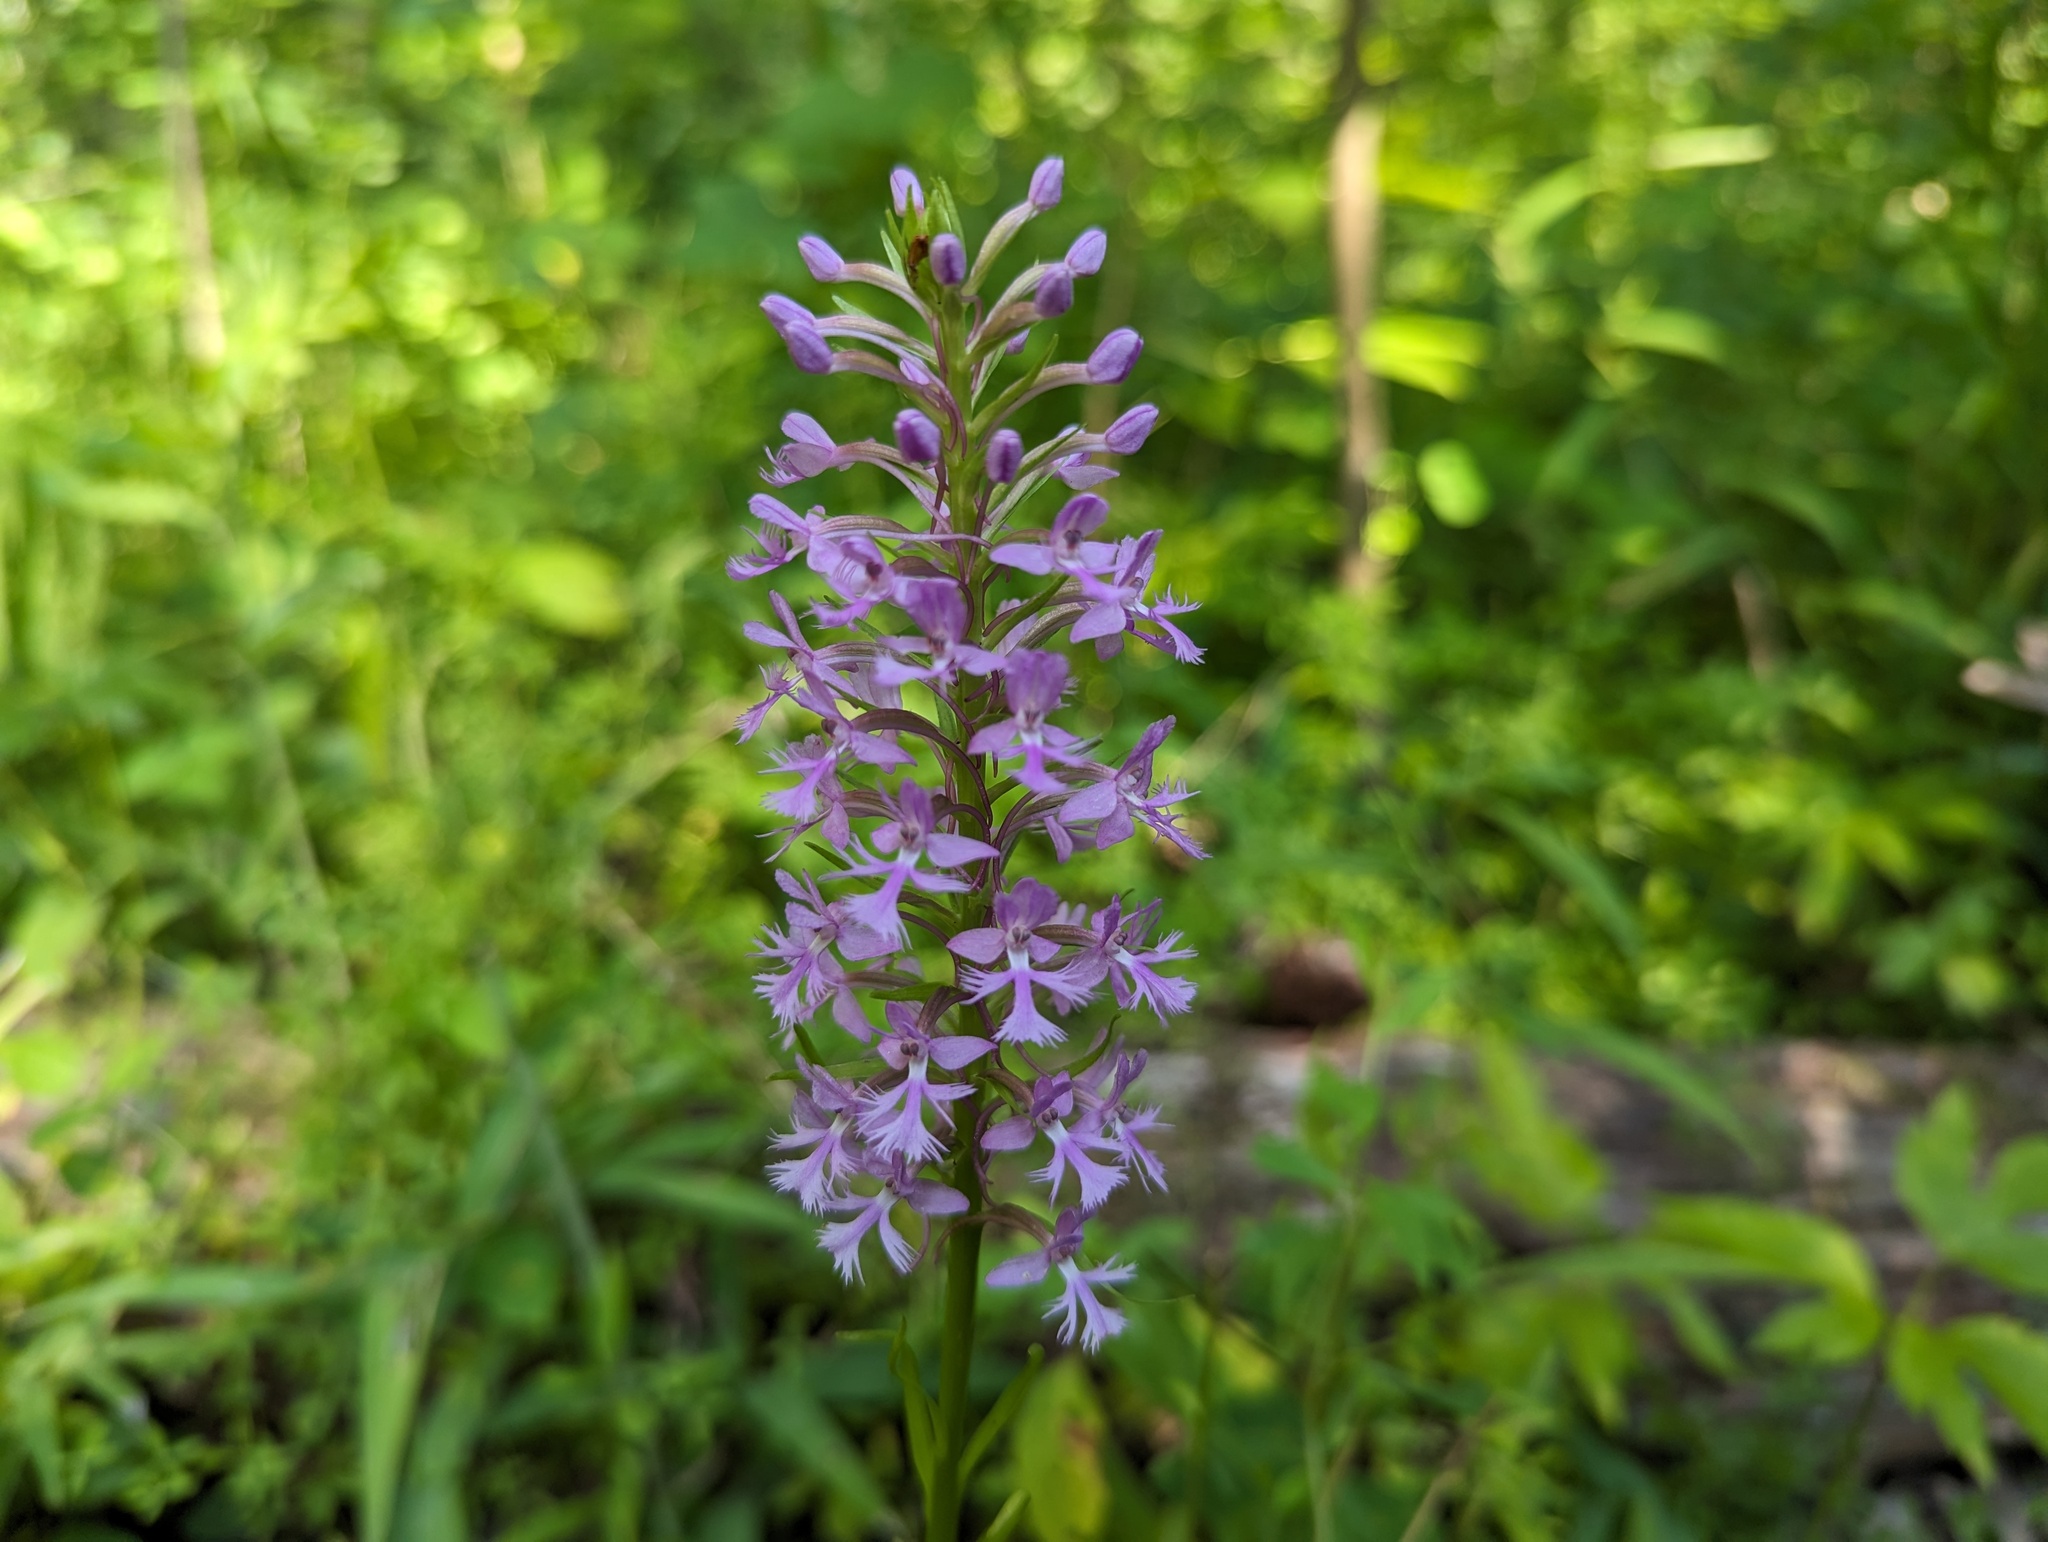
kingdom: Plantae
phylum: Tracheophyta
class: Liliopsida
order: Asparagales
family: Orchidaceae
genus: Platanthera
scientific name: Platanthera psycodes
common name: Lesser purple fringed orchid
